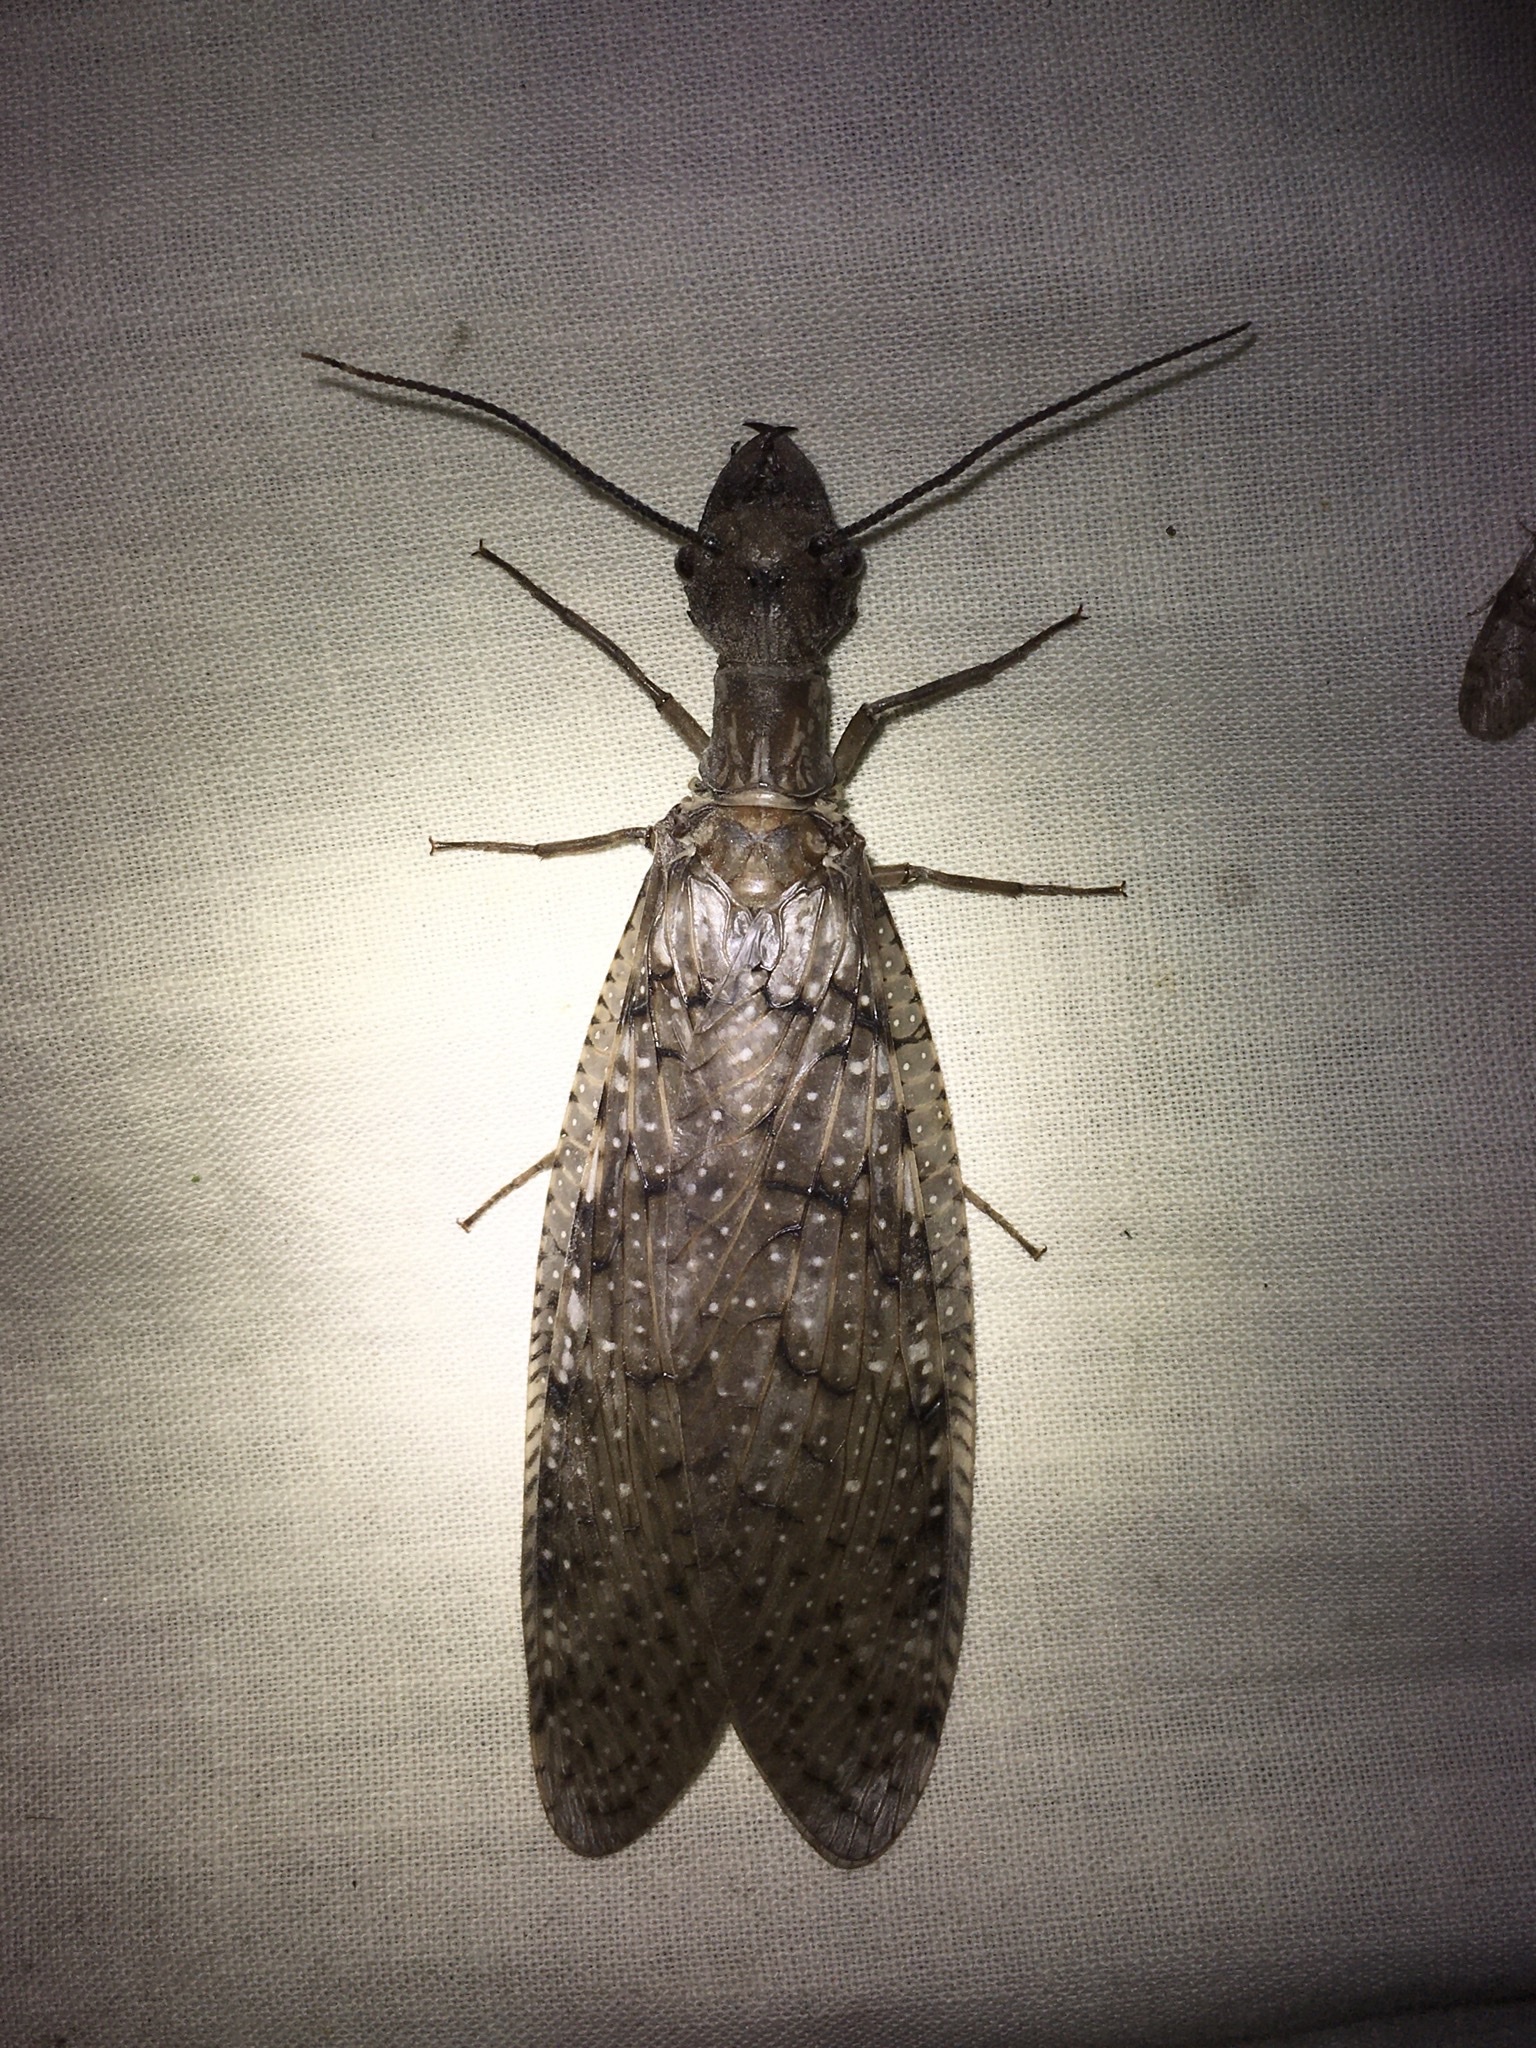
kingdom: Animalia
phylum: Arthropoda
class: Insecta
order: Megaloptera
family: Corydalidae
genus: Corydalus
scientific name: Corydalus cornutus
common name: Dobsonfly
